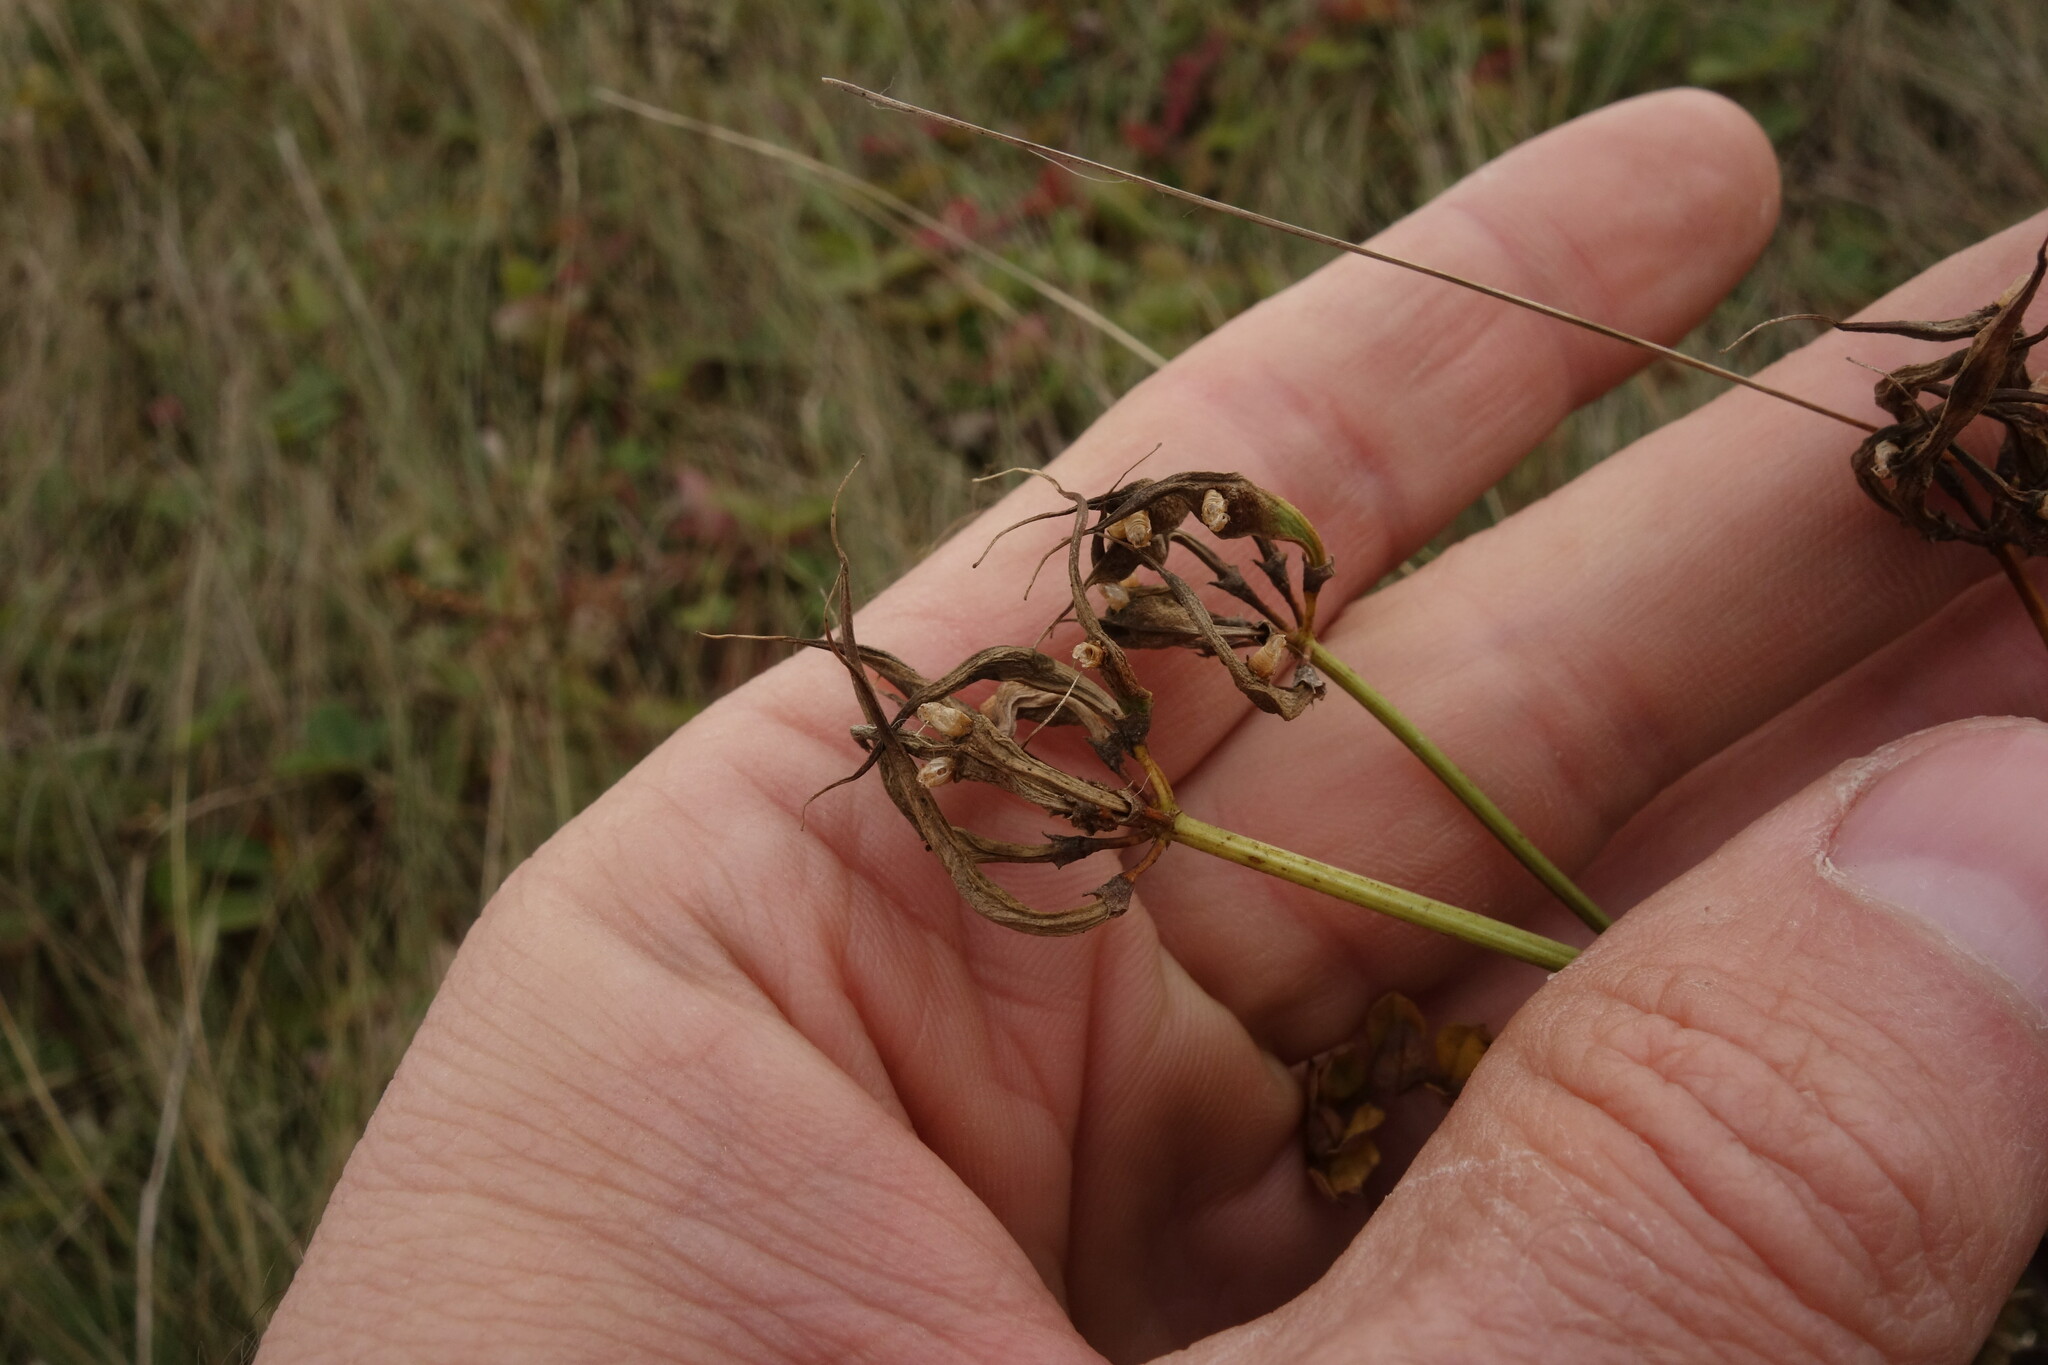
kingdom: Plantae
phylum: Tracheophyta
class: Magnoliopsida
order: Fabales
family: Fabaceae
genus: Coronilla
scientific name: Coronilla varia
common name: Crownvetch
